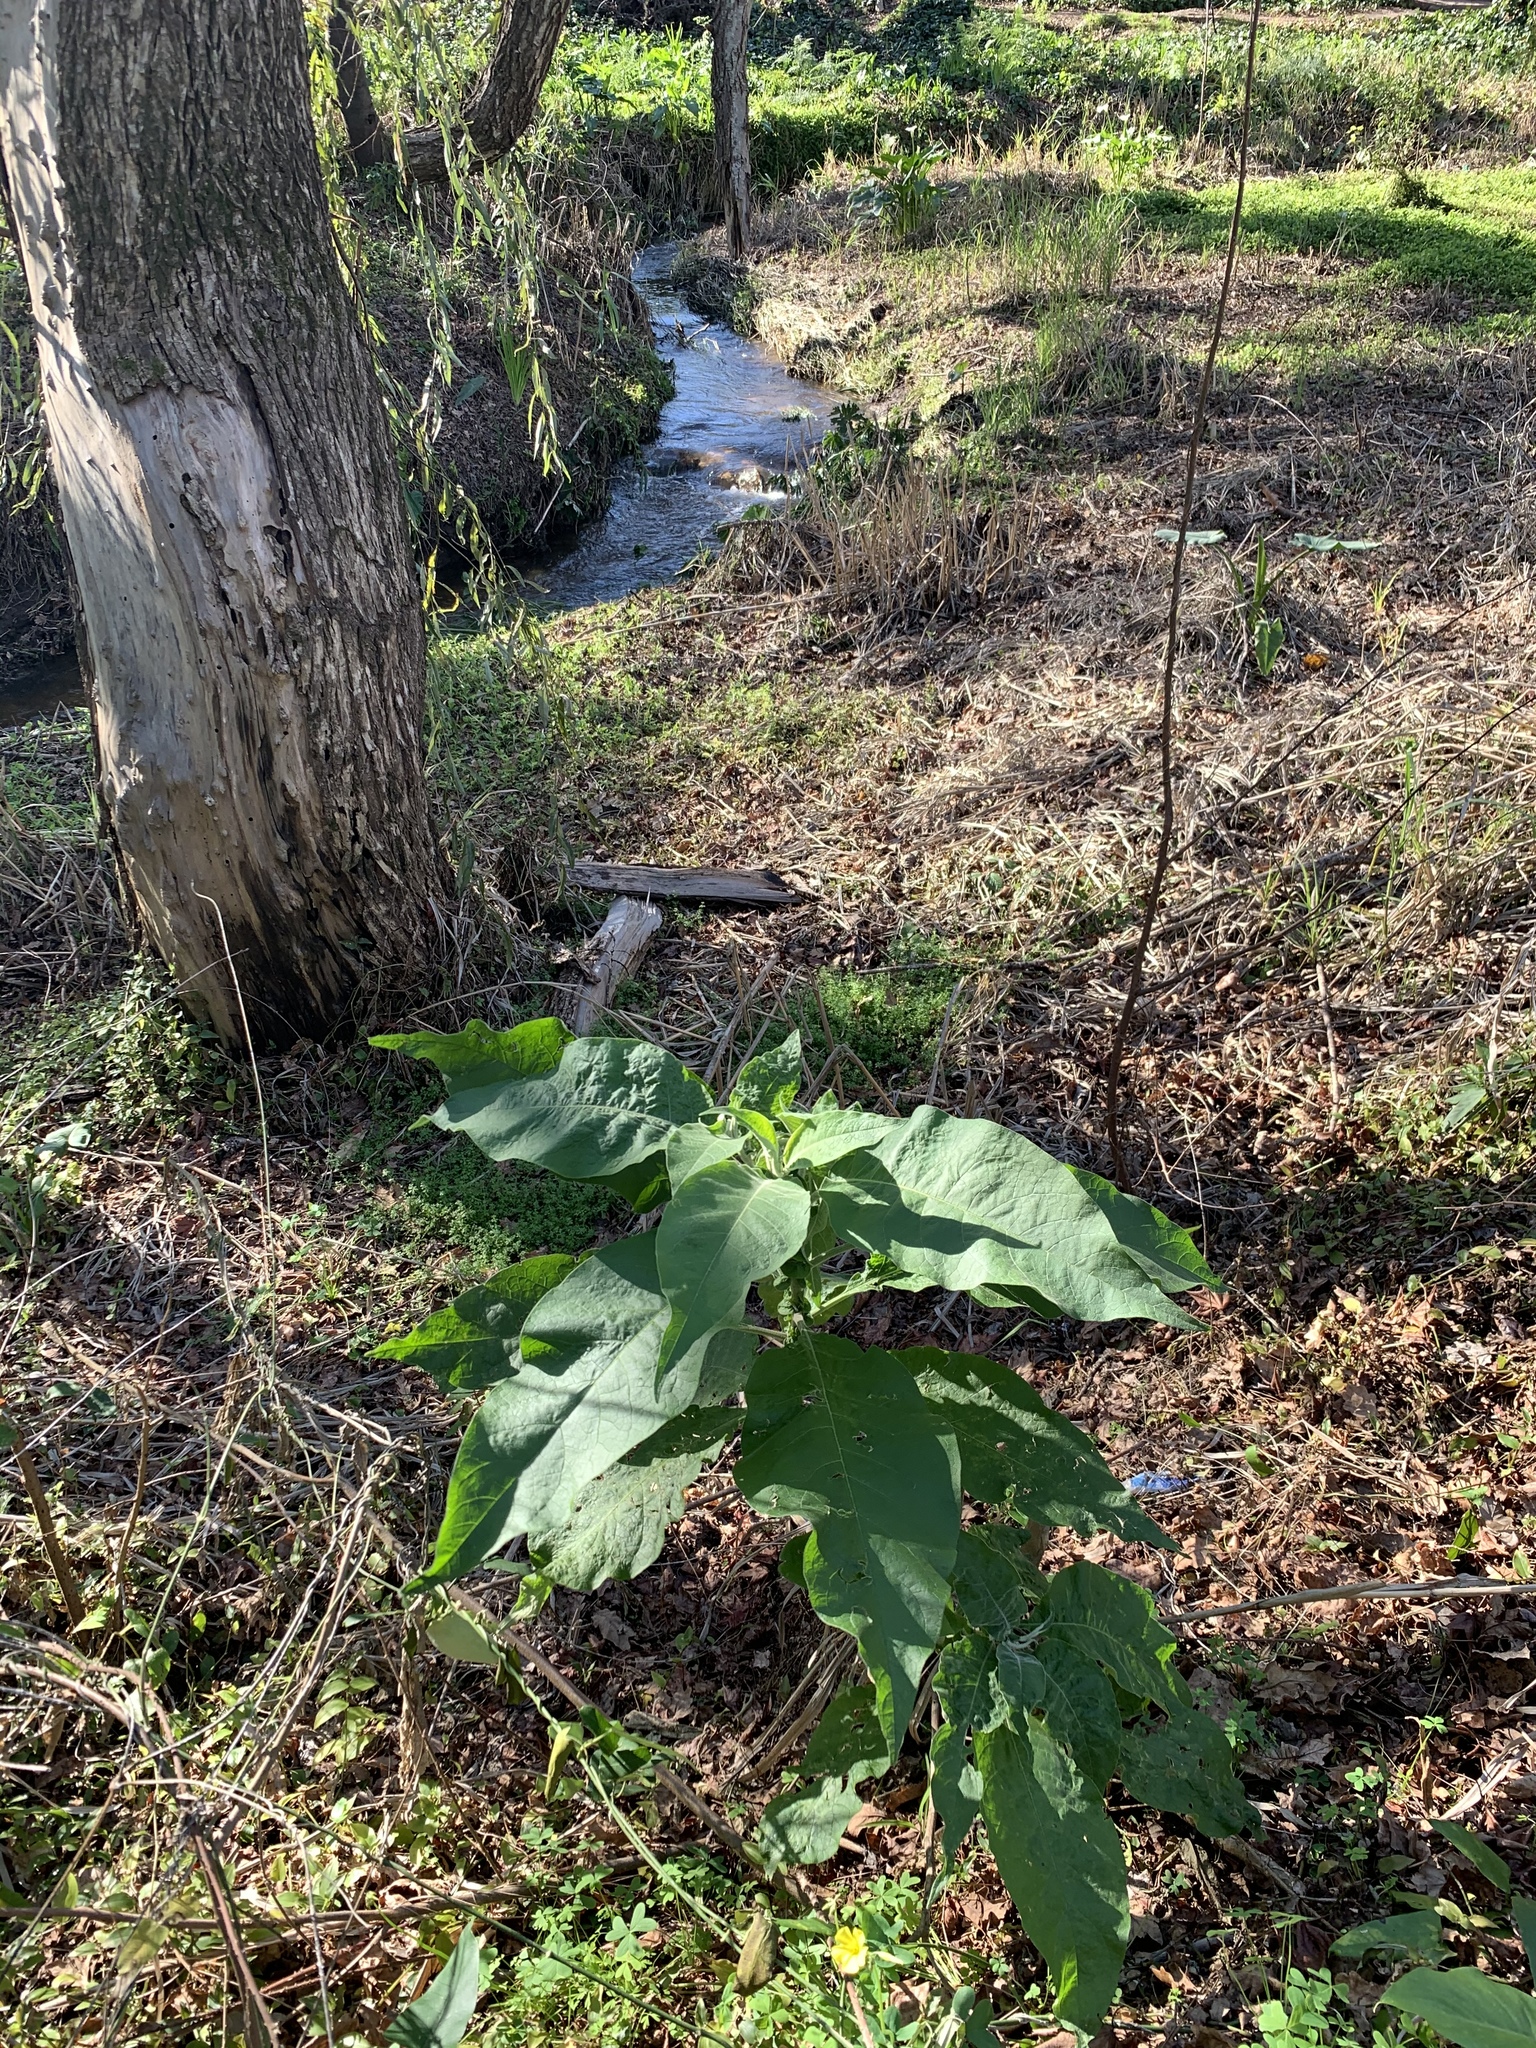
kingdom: Plantae
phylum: Tracheophyta
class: Magnoliopsida
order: Solanales
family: Solanaceae
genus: Solanum
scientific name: Solanum mauritianum
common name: Earleaf nightshade
